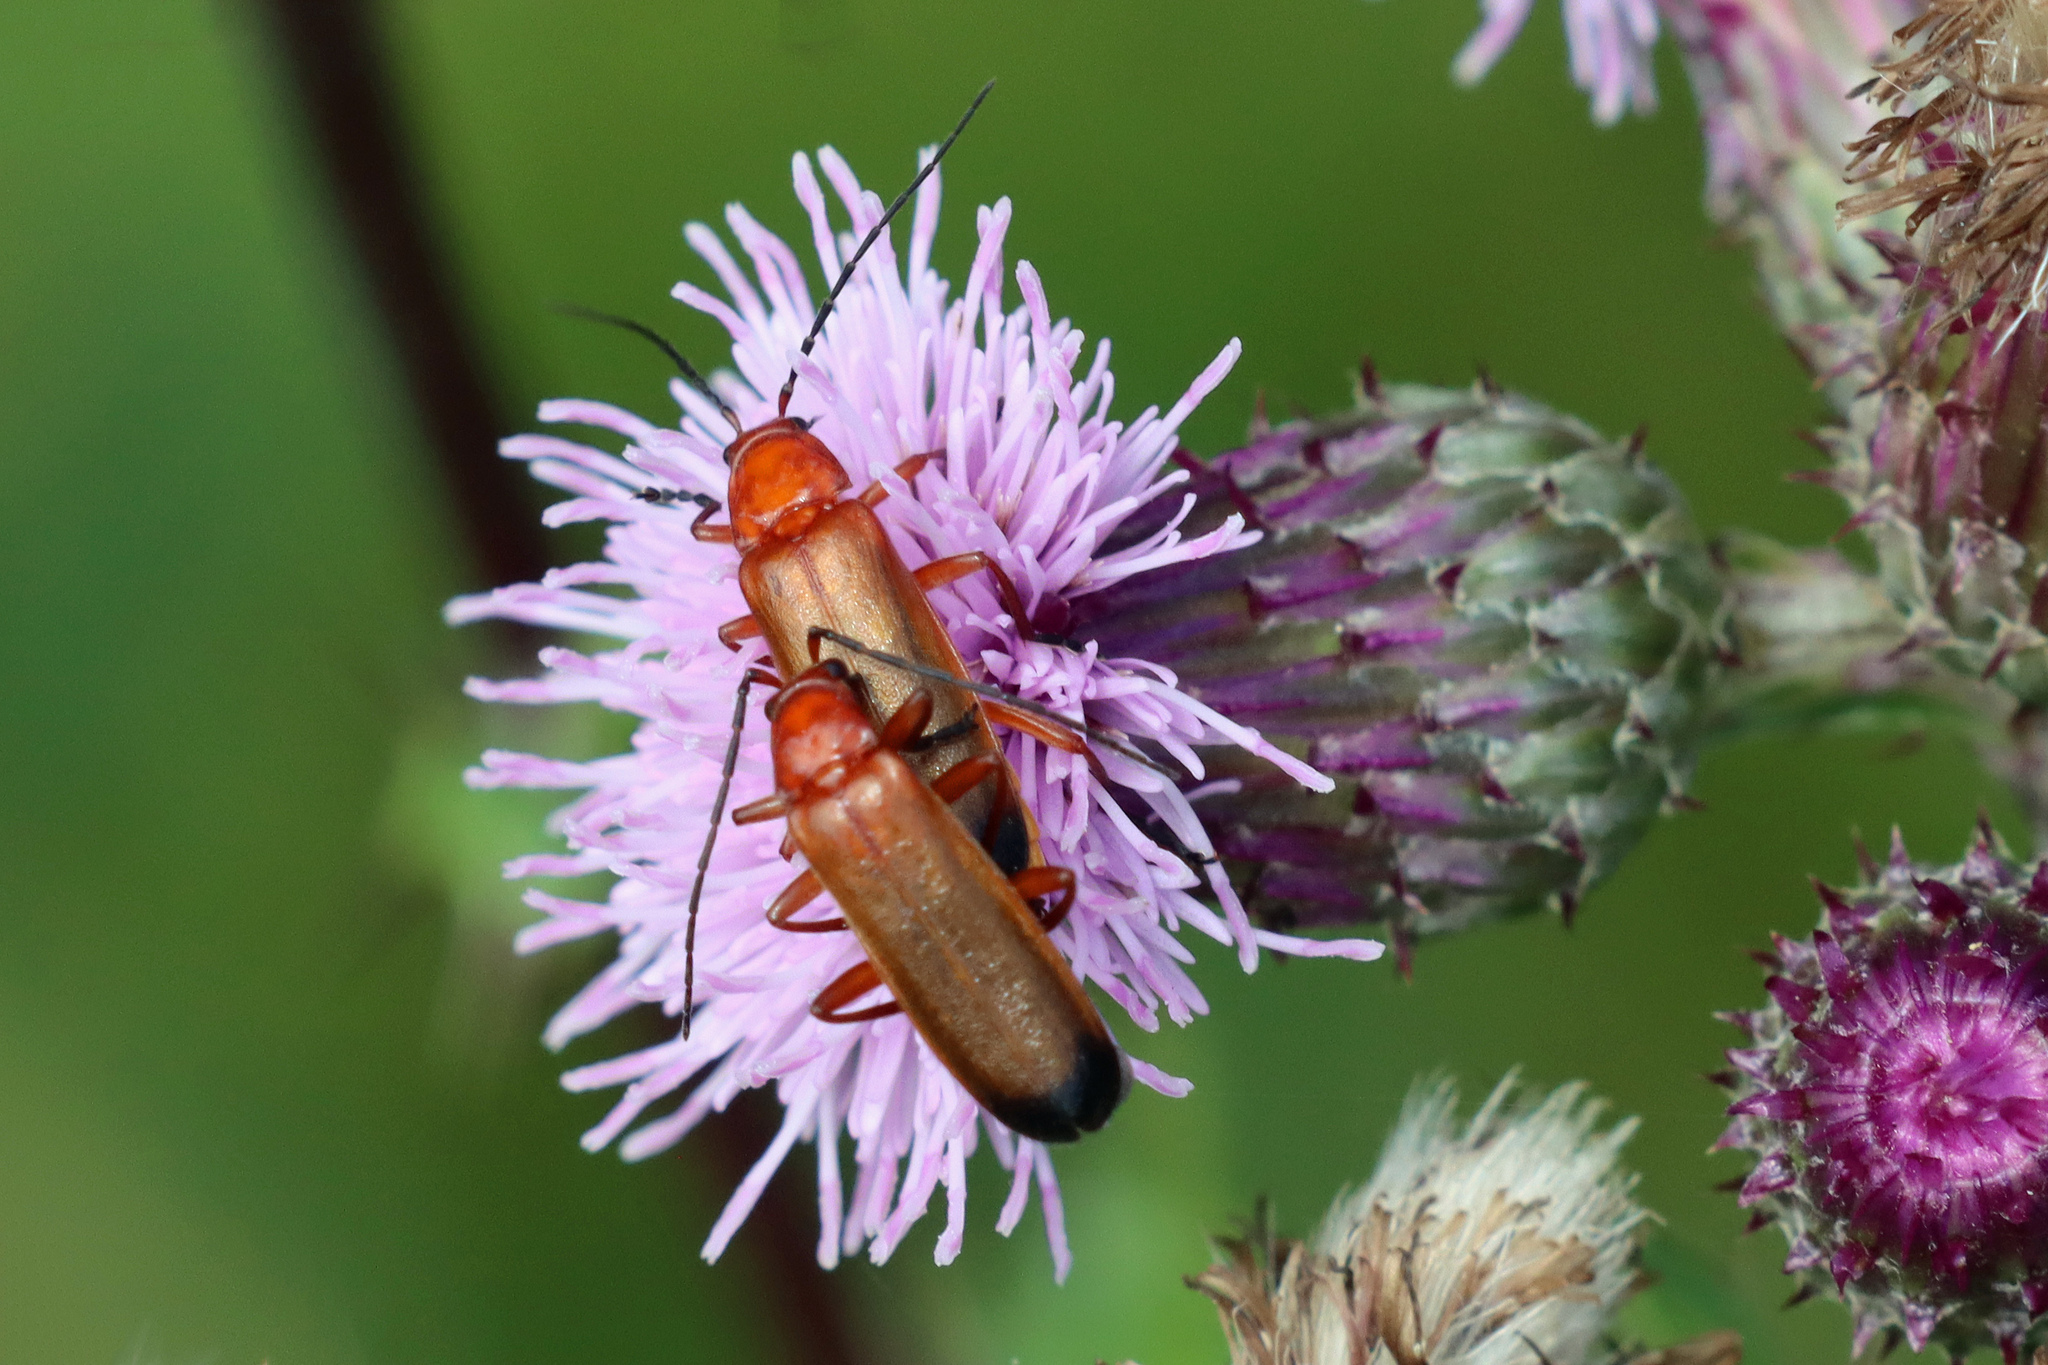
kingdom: Animalia
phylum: Arthropoda
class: Insecta
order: Coleoptera
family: Cantharidae
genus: Rhagonycha
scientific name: Rhagonycha fulva
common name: Common red soldier beetle
